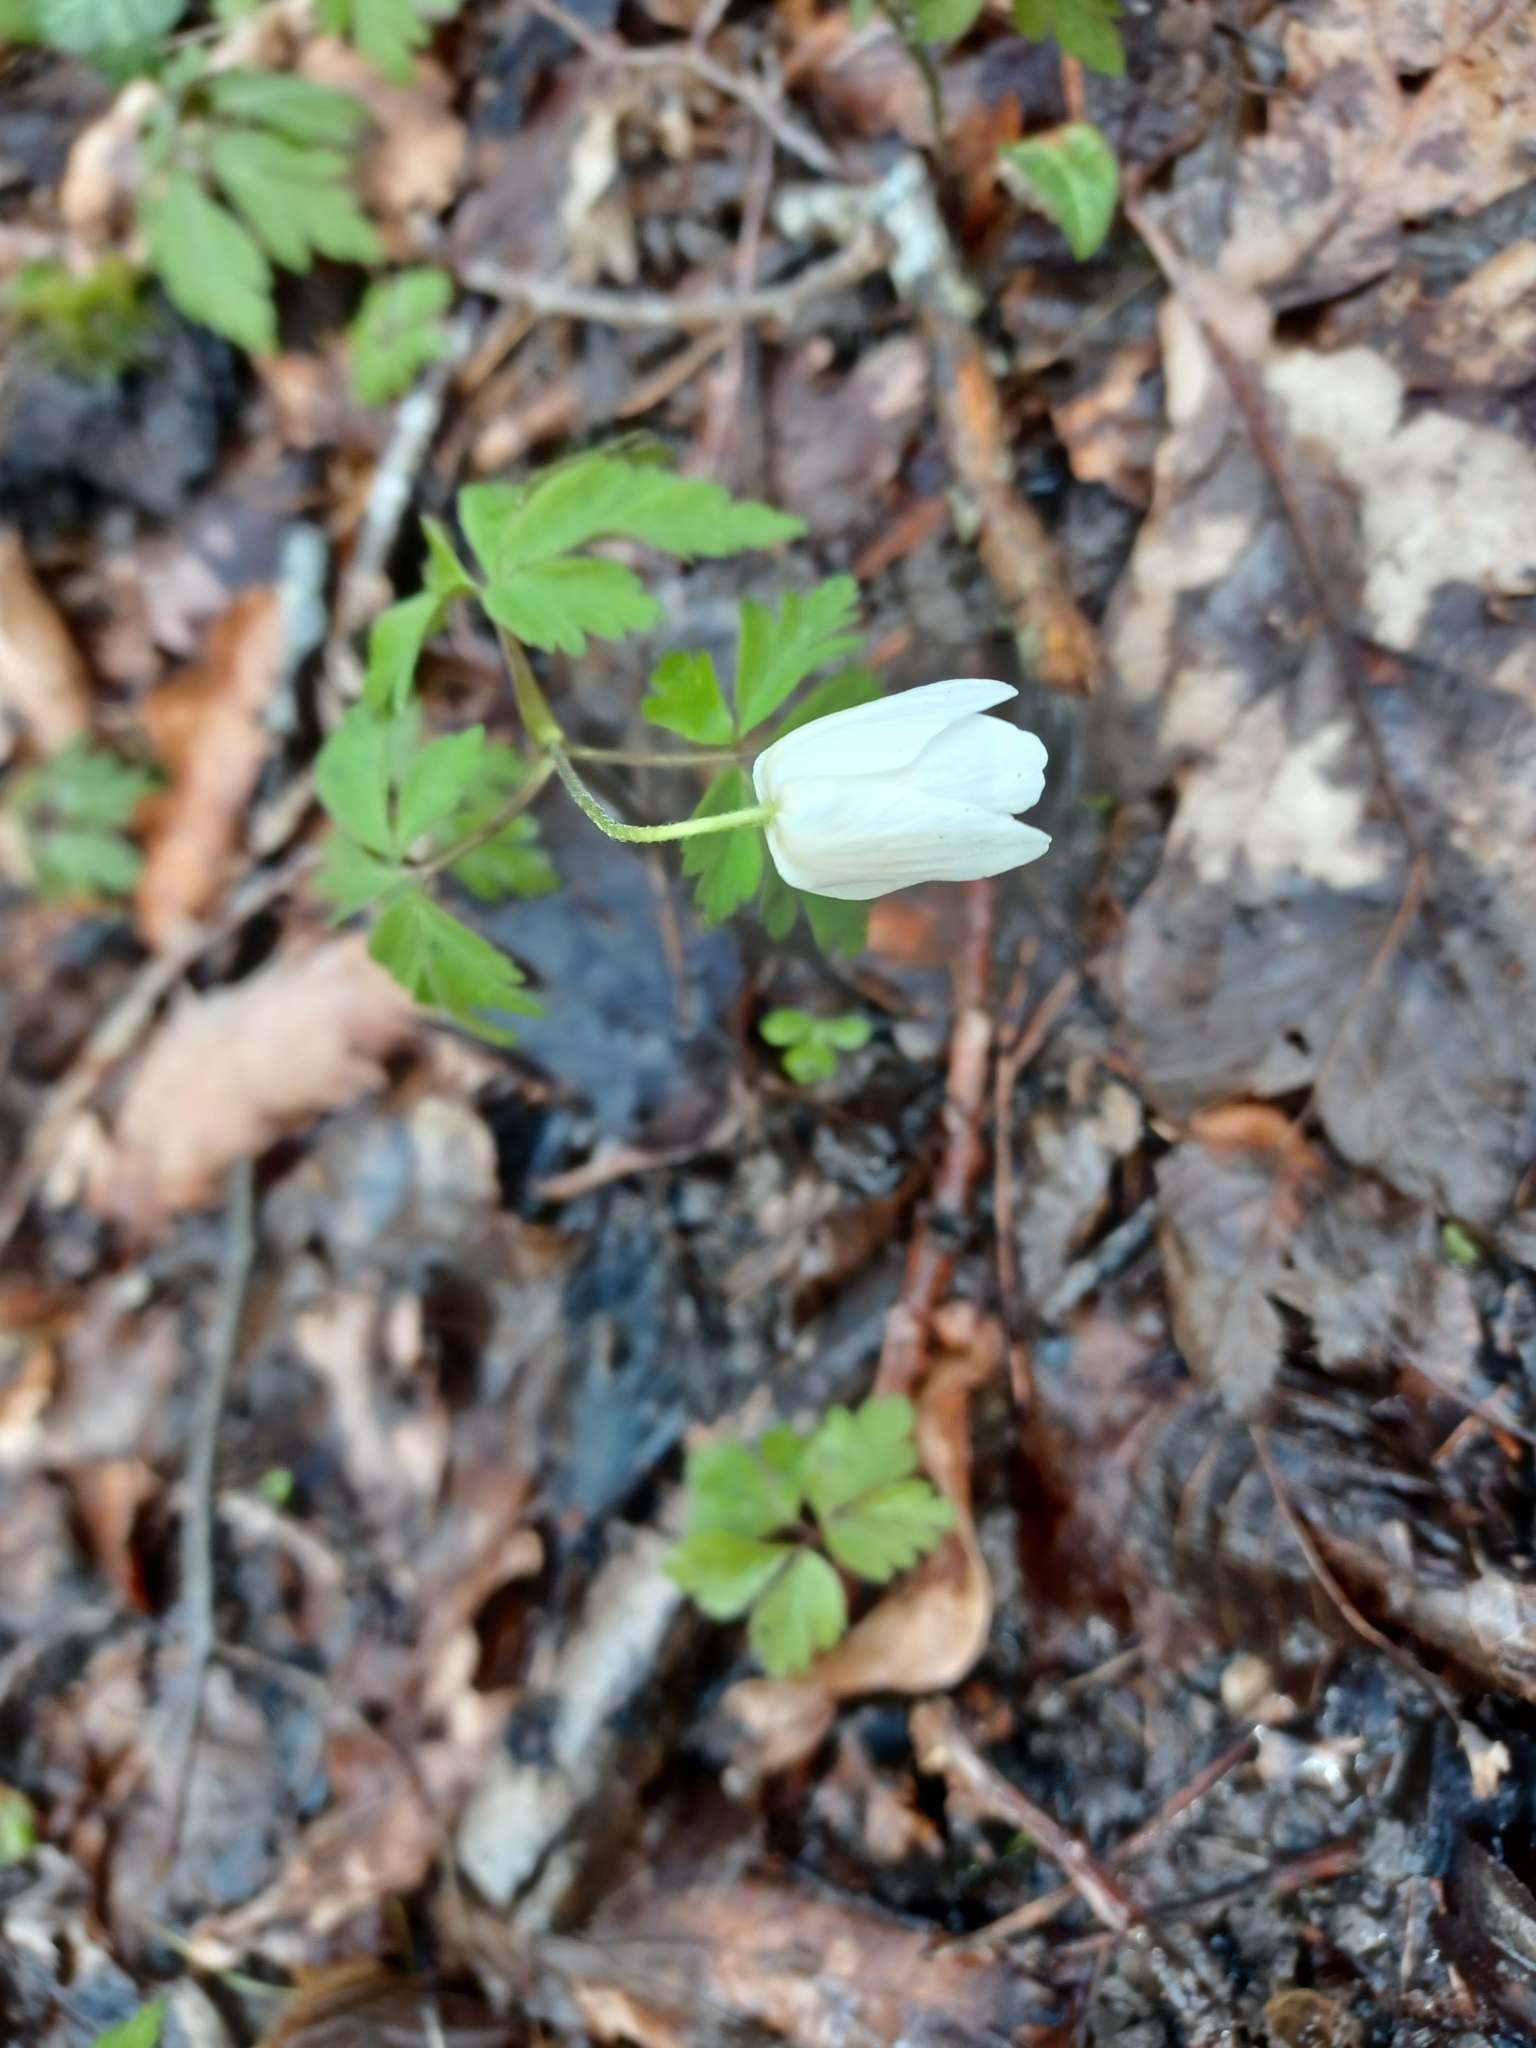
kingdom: Plantae
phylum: Tracheophyta
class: Magnoliopsida
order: Ranunculales
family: Ranunculaceae
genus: Anemone
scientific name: Anemone nemorosa
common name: Wood anemone
